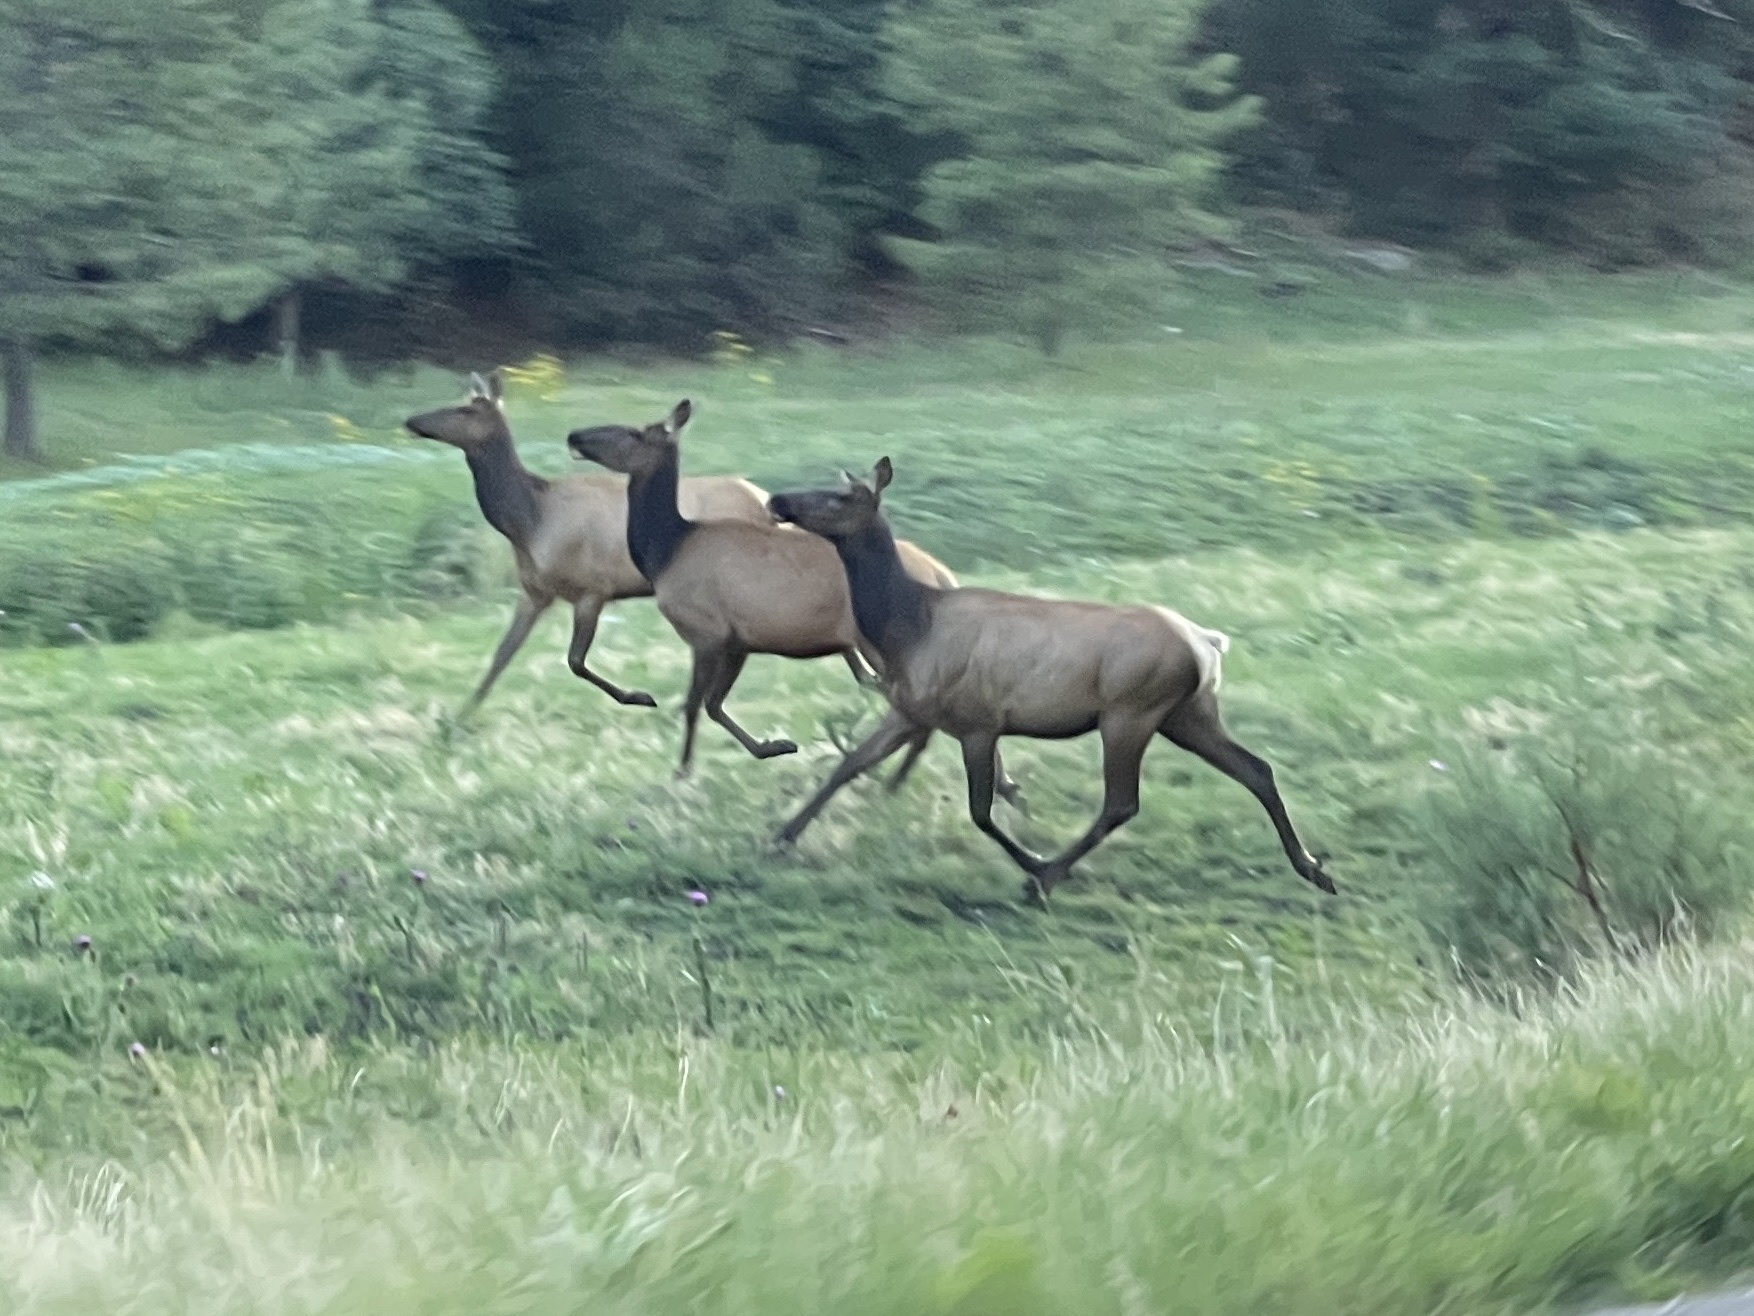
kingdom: Animalia
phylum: Chordata
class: Mammalia
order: Artiodactyla
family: Cervidae
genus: Cervus
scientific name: Cervus elaphus
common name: Red deer
